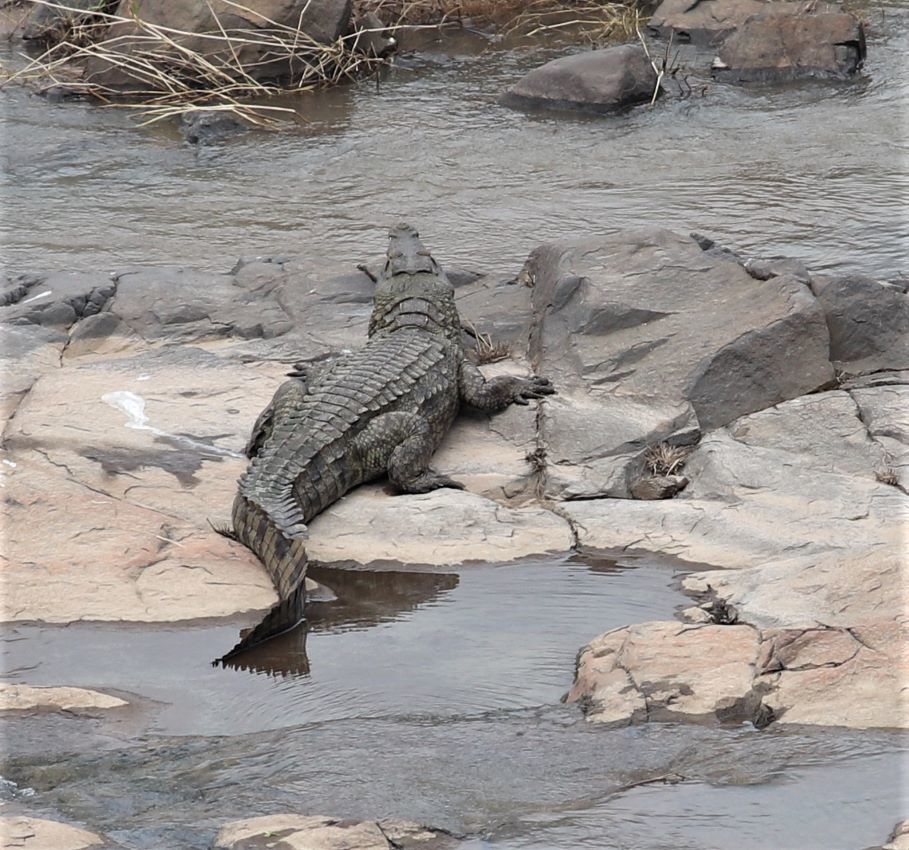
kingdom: Animalia
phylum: Chordata
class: Crocodylia
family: Crocodylidae
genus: Crocodylus
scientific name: Crocodylus niloticus
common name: Nile crocodile
